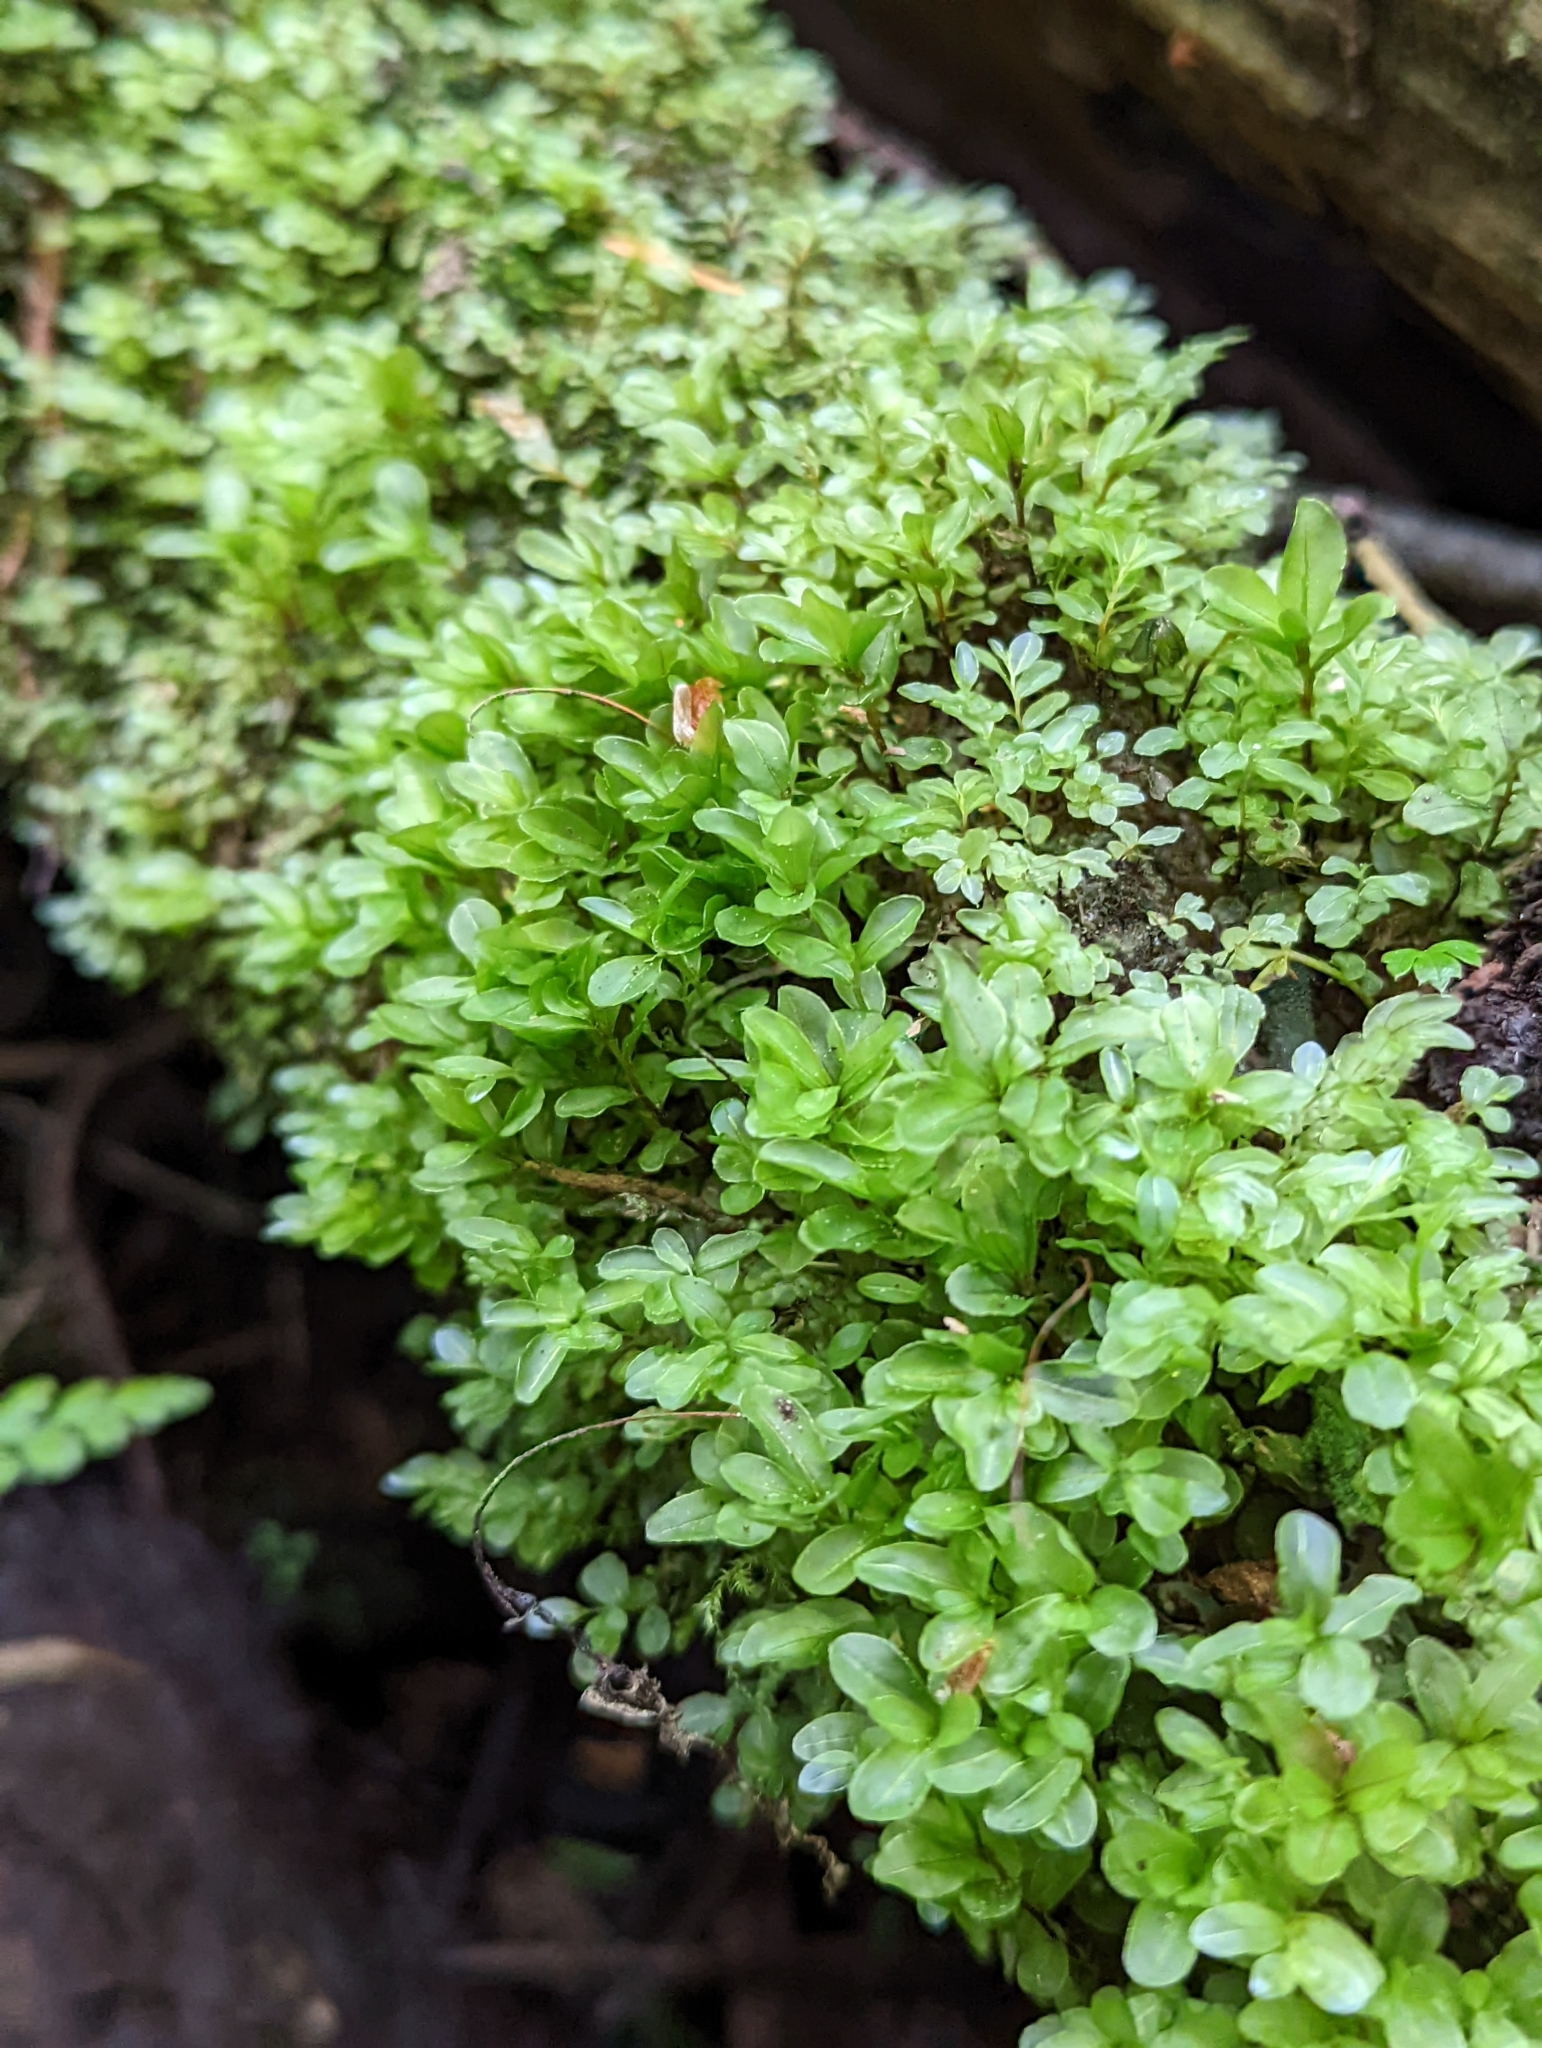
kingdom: Plantae
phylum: Bryophyta
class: Bryopsida
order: Bryales
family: Mniaceae
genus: Rhizomnium
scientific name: Rhizomnium glabrescens
